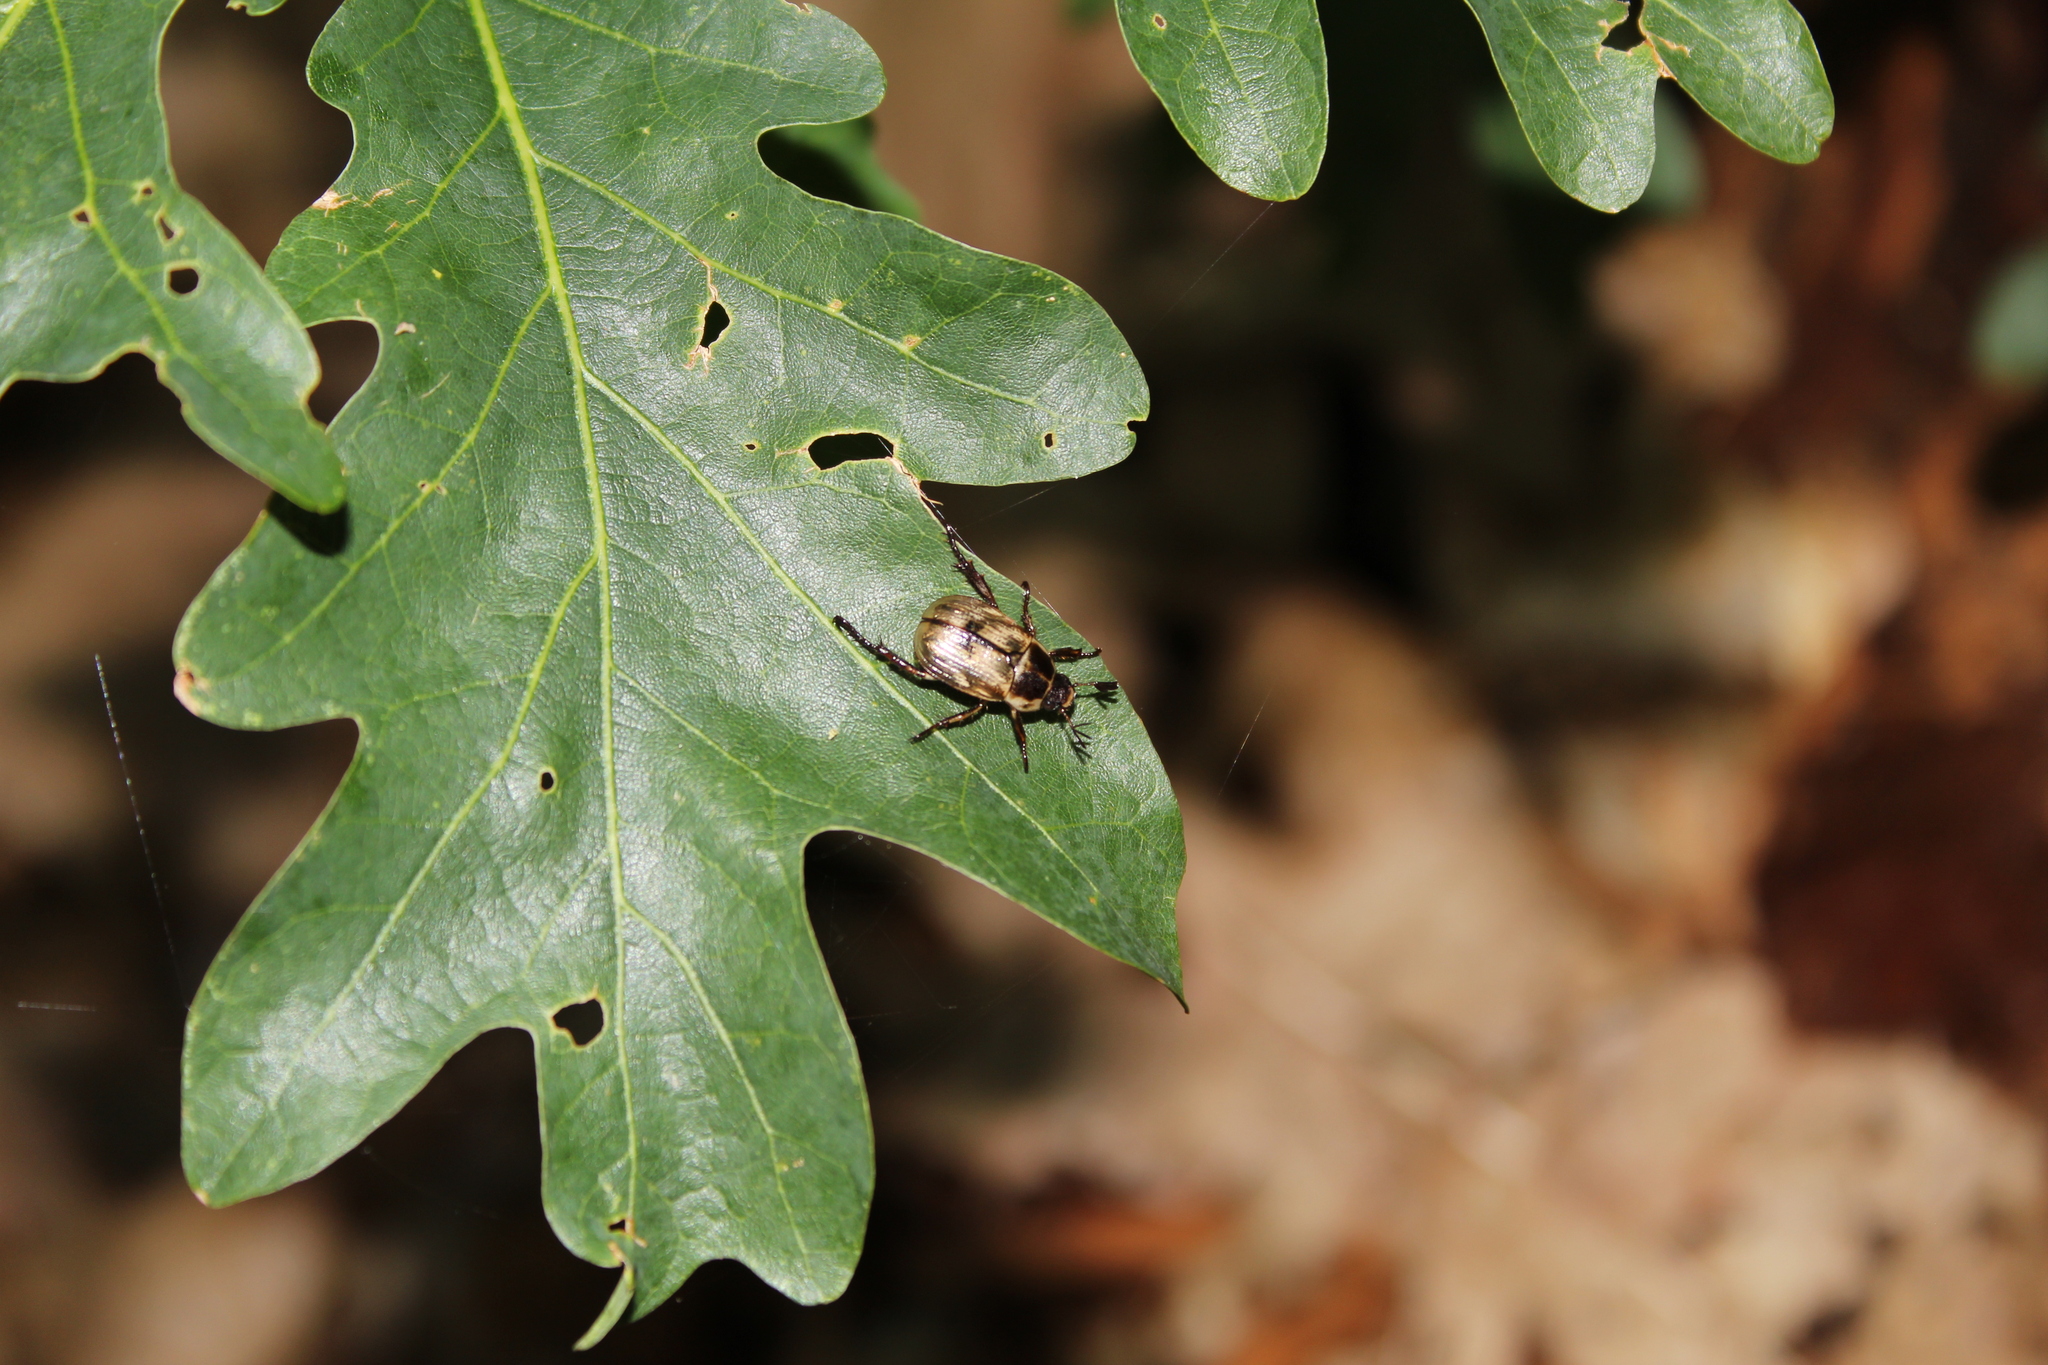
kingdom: Animalia
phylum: Arthropoda
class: Insecta
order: Coleoptera
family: Scarabaeidae
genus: Exomala
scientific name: Exomala orientalis
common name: Oriental beetle
